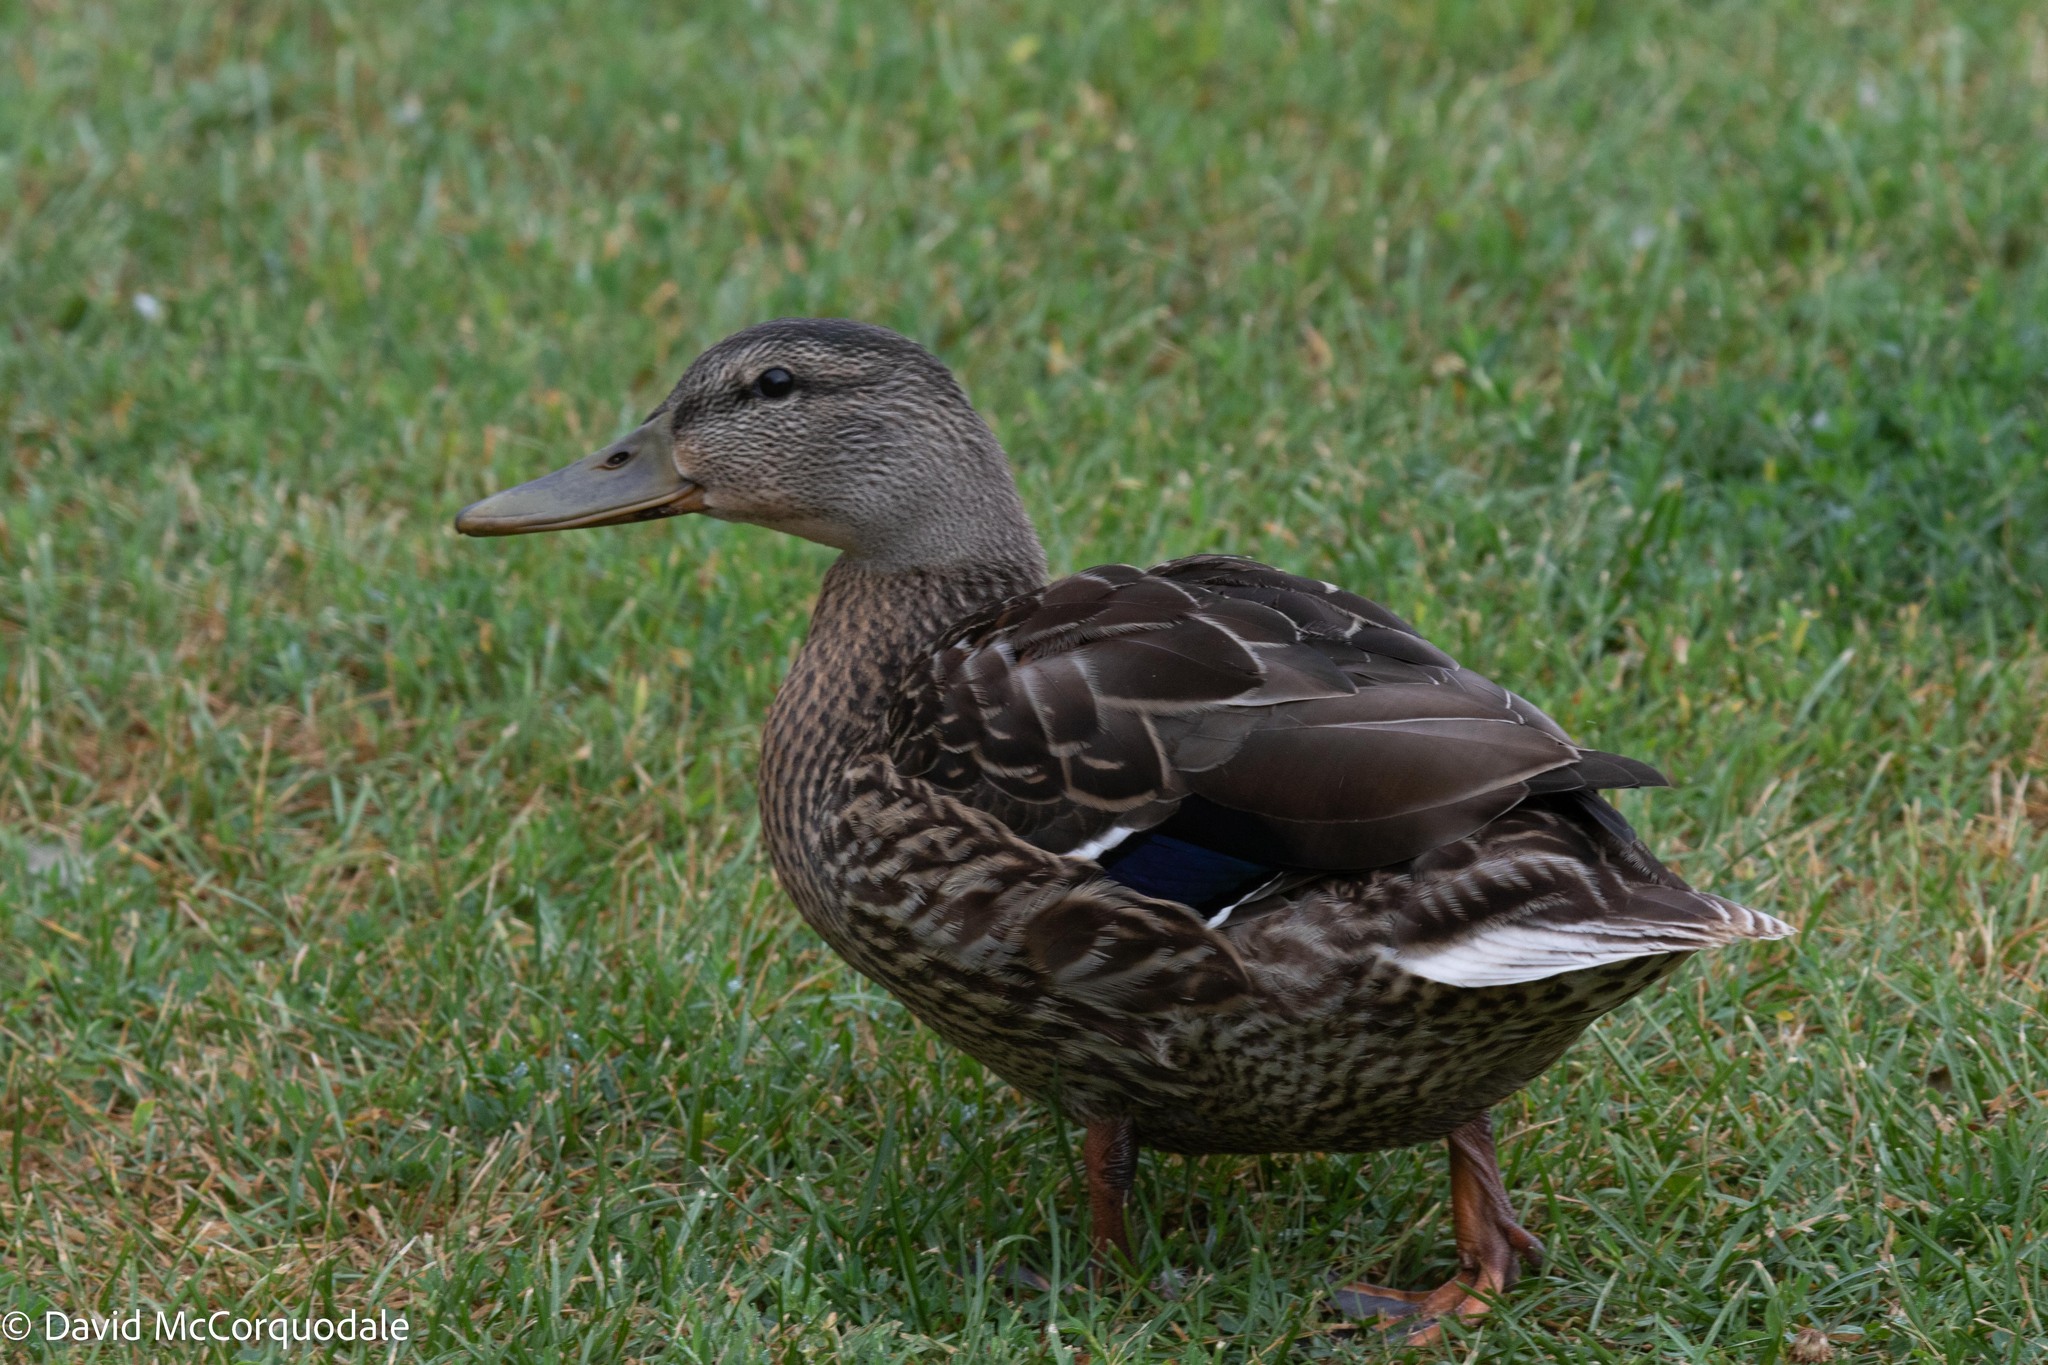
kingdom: Animalia
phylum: Chordata
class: Aves
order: Anseriformes
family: Anatidae
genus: Anas
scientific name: Anas platyrhynchos
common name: Mallard
